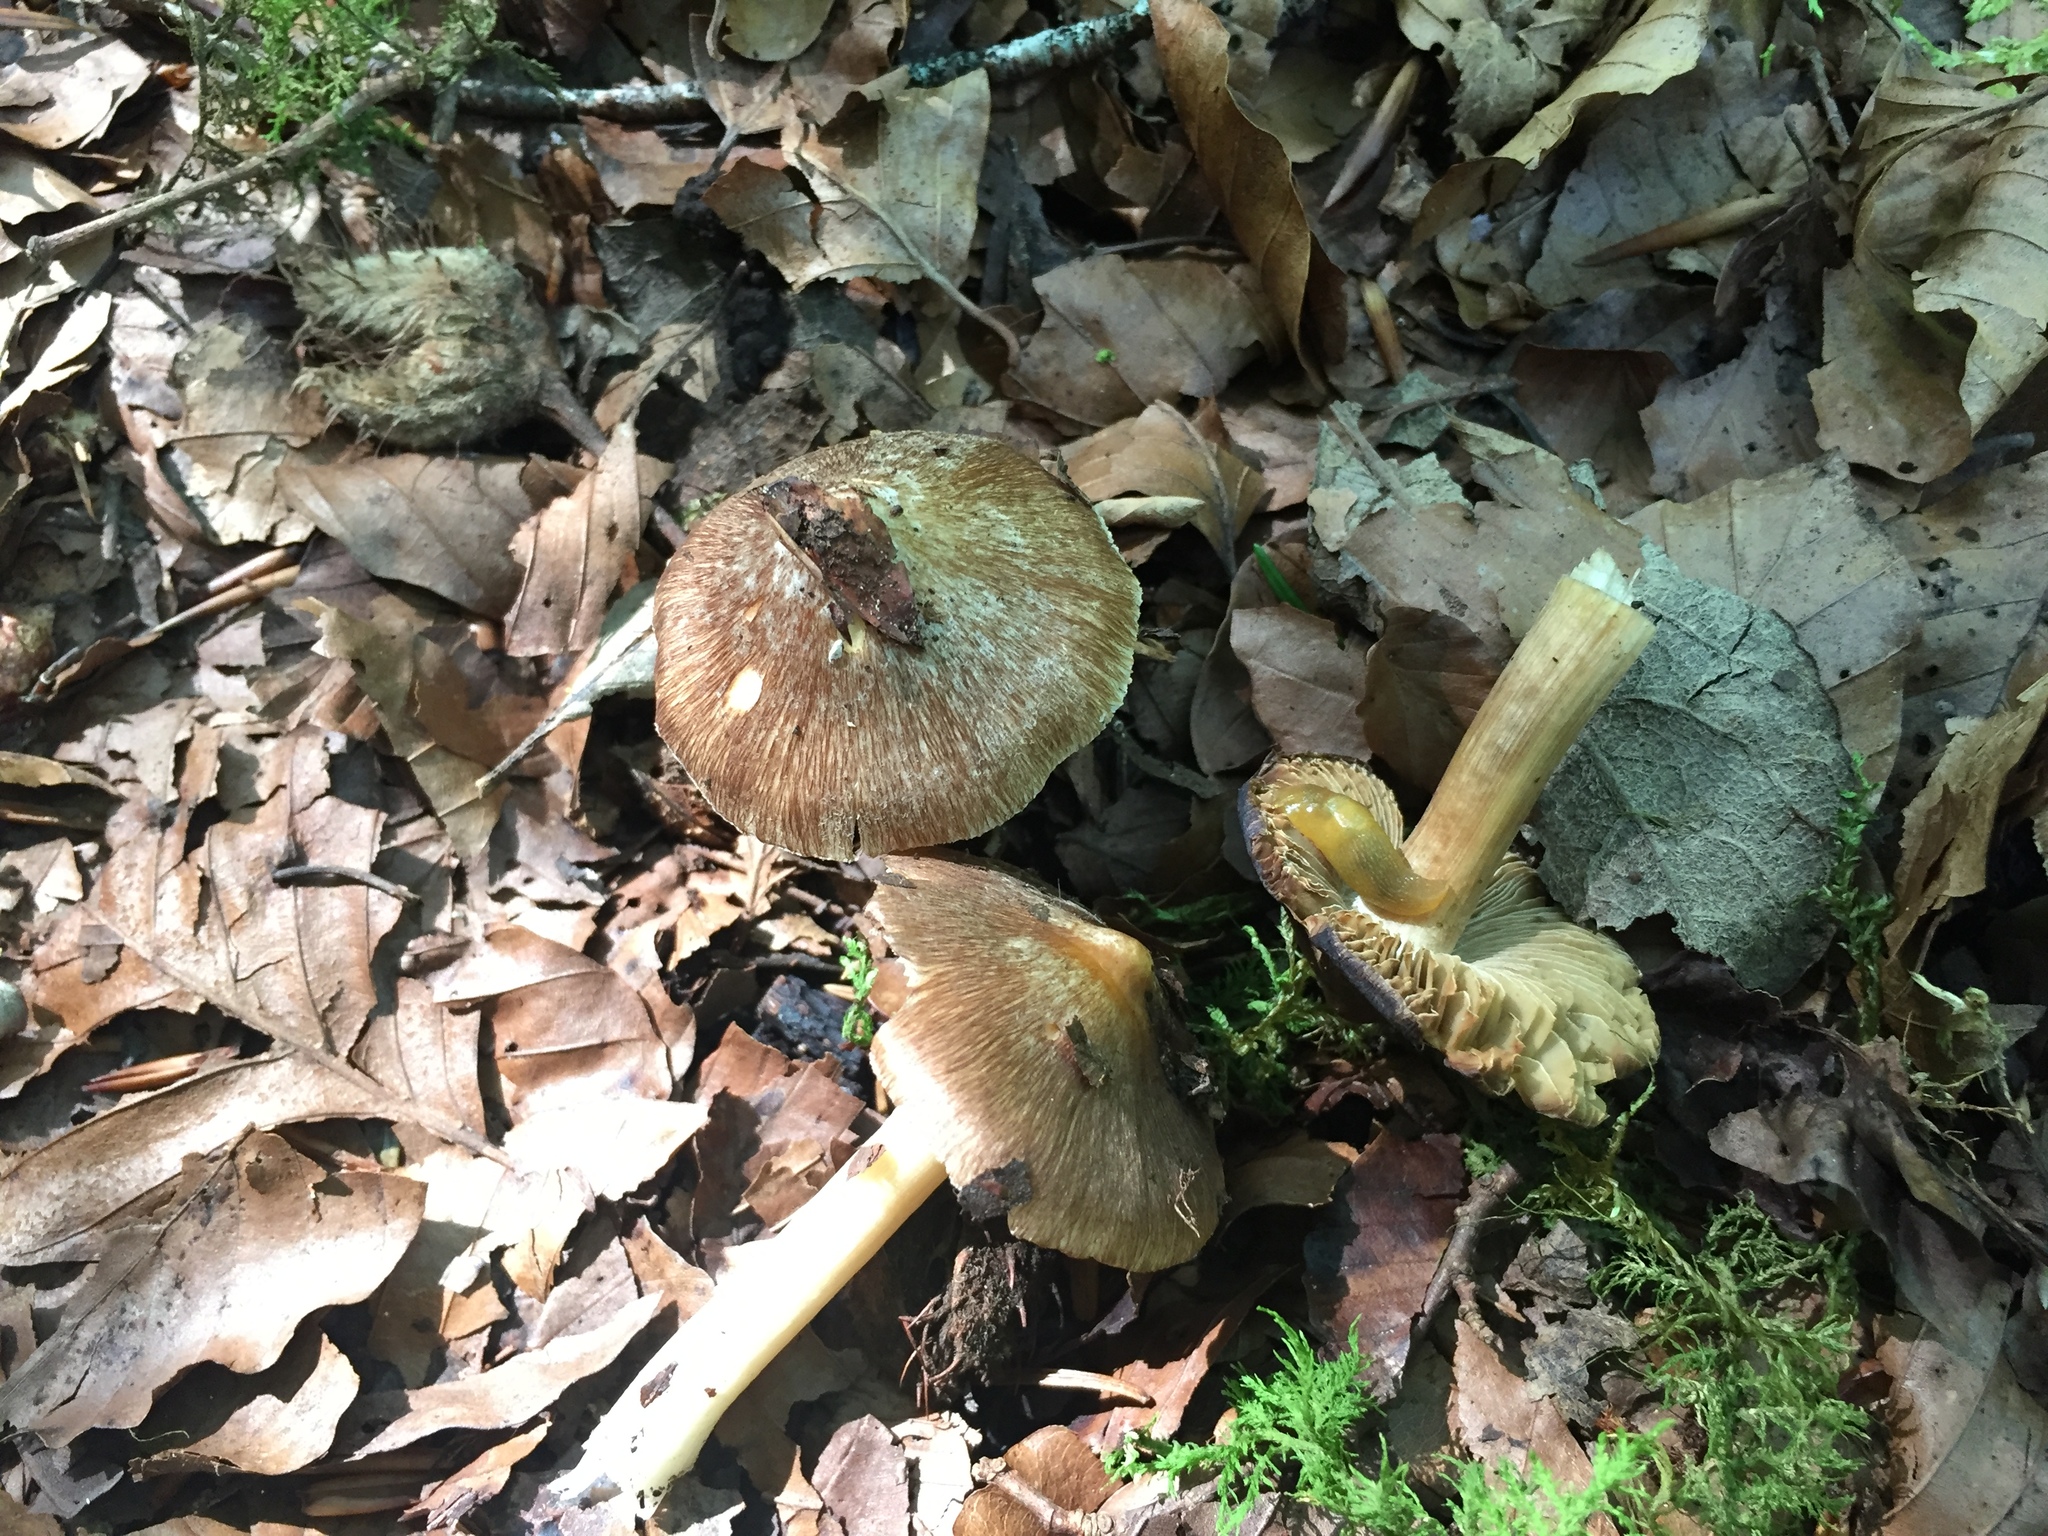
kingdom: Fungi
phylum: Basidiomycota
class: Agaricomycetes
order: Agaricales
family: Inocybaceae
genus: Inosperma
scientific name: Inosperma maculatum
